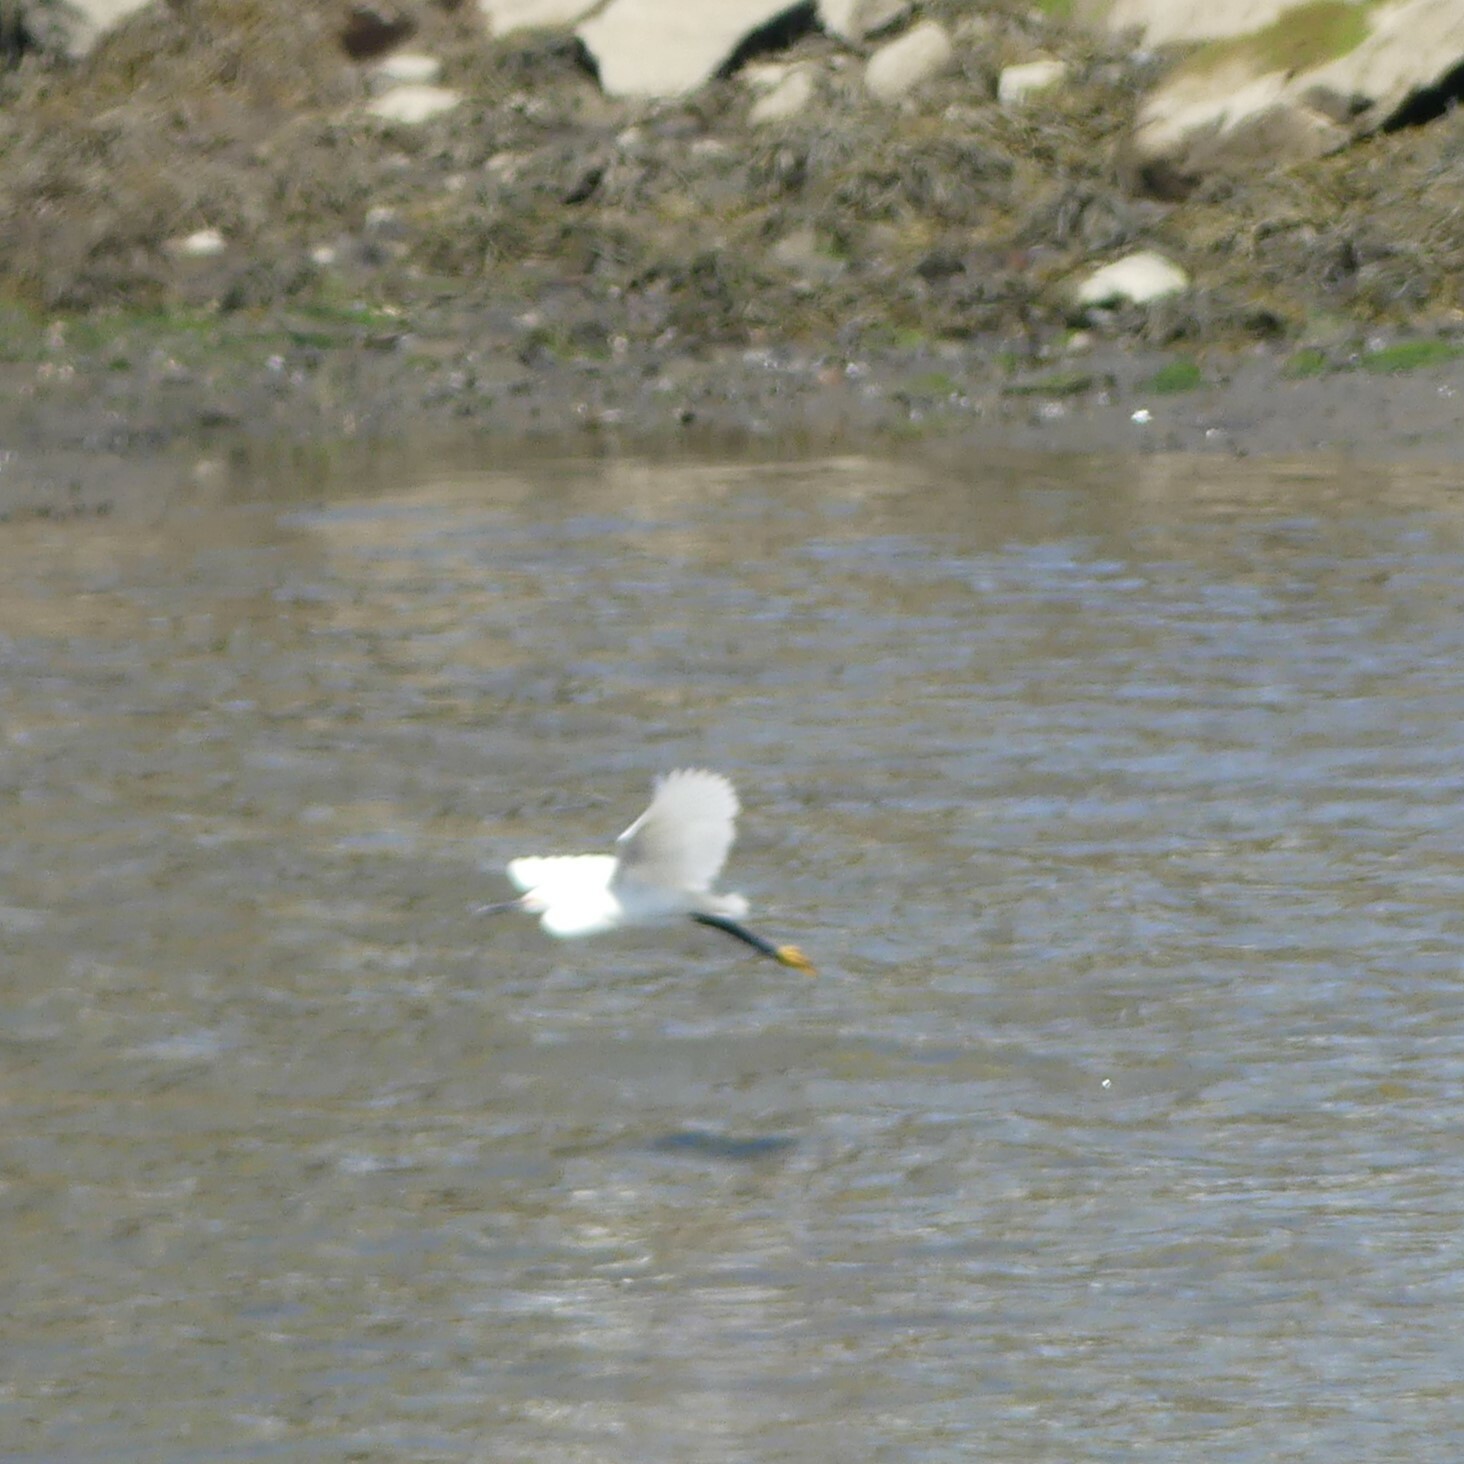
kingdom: Animalia
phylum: Chordata
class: Aves
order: Pelecaniformes
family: Ardeidae
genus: Egretta
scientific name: Egretta thula
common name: Snowy egret
